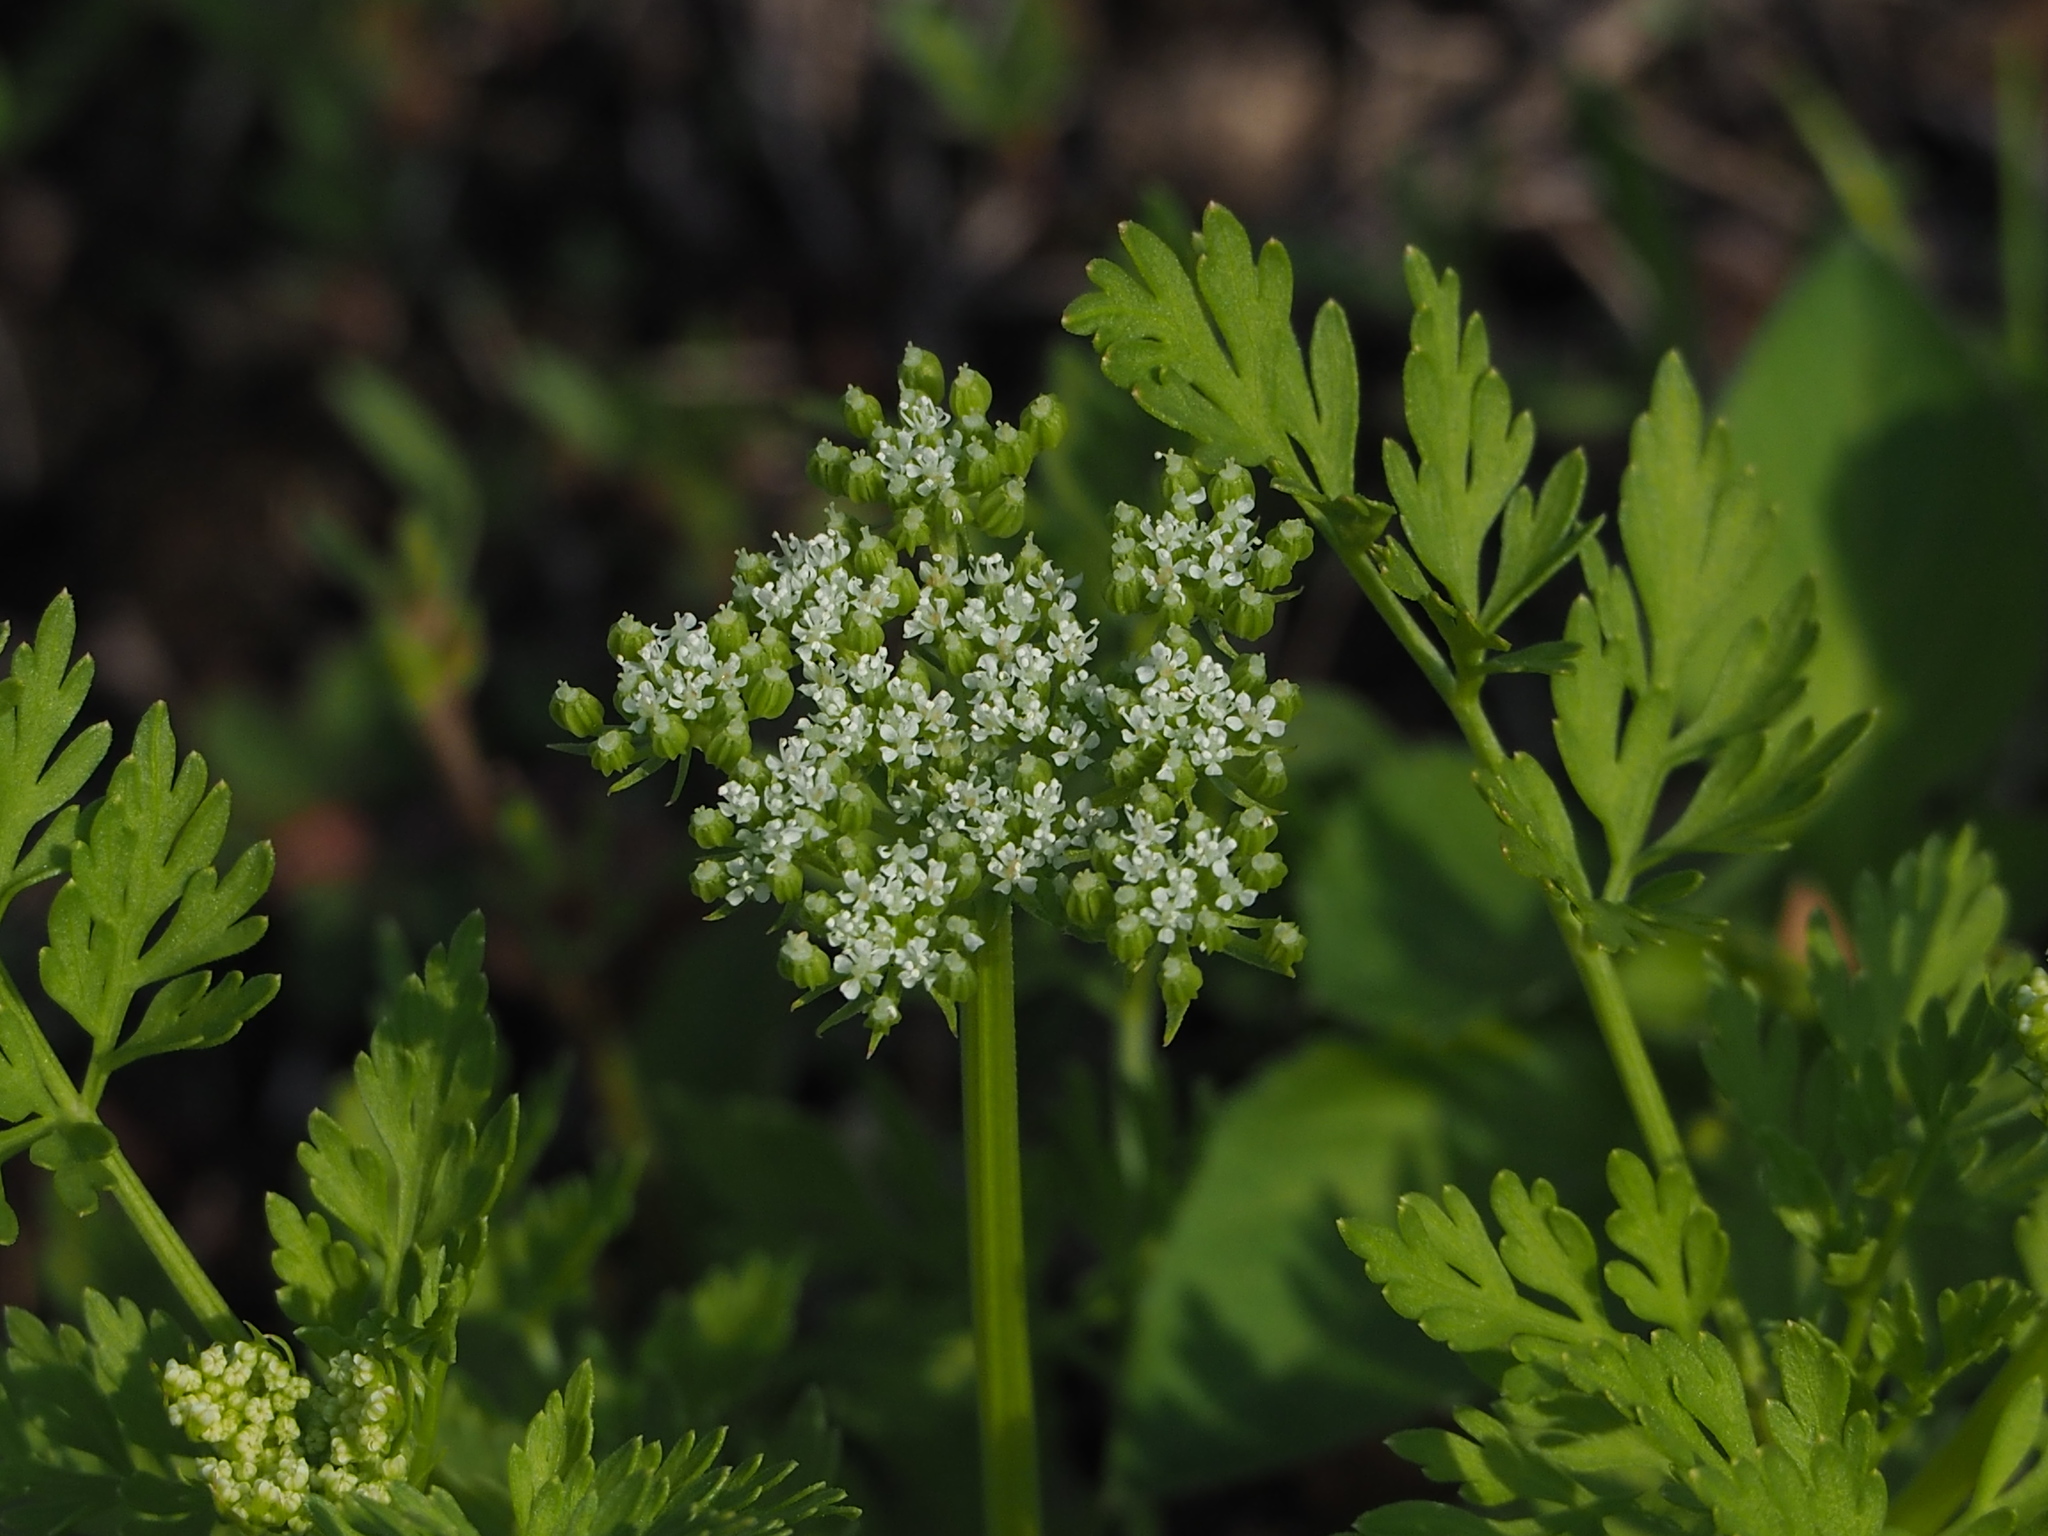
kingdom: Plantae
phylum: Tracheophyta
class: Magnoliopsida
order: Apiales
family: Apiaceae
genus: Cnidium
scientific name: Cnidium monnieri
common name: Monnier's snowparsley
